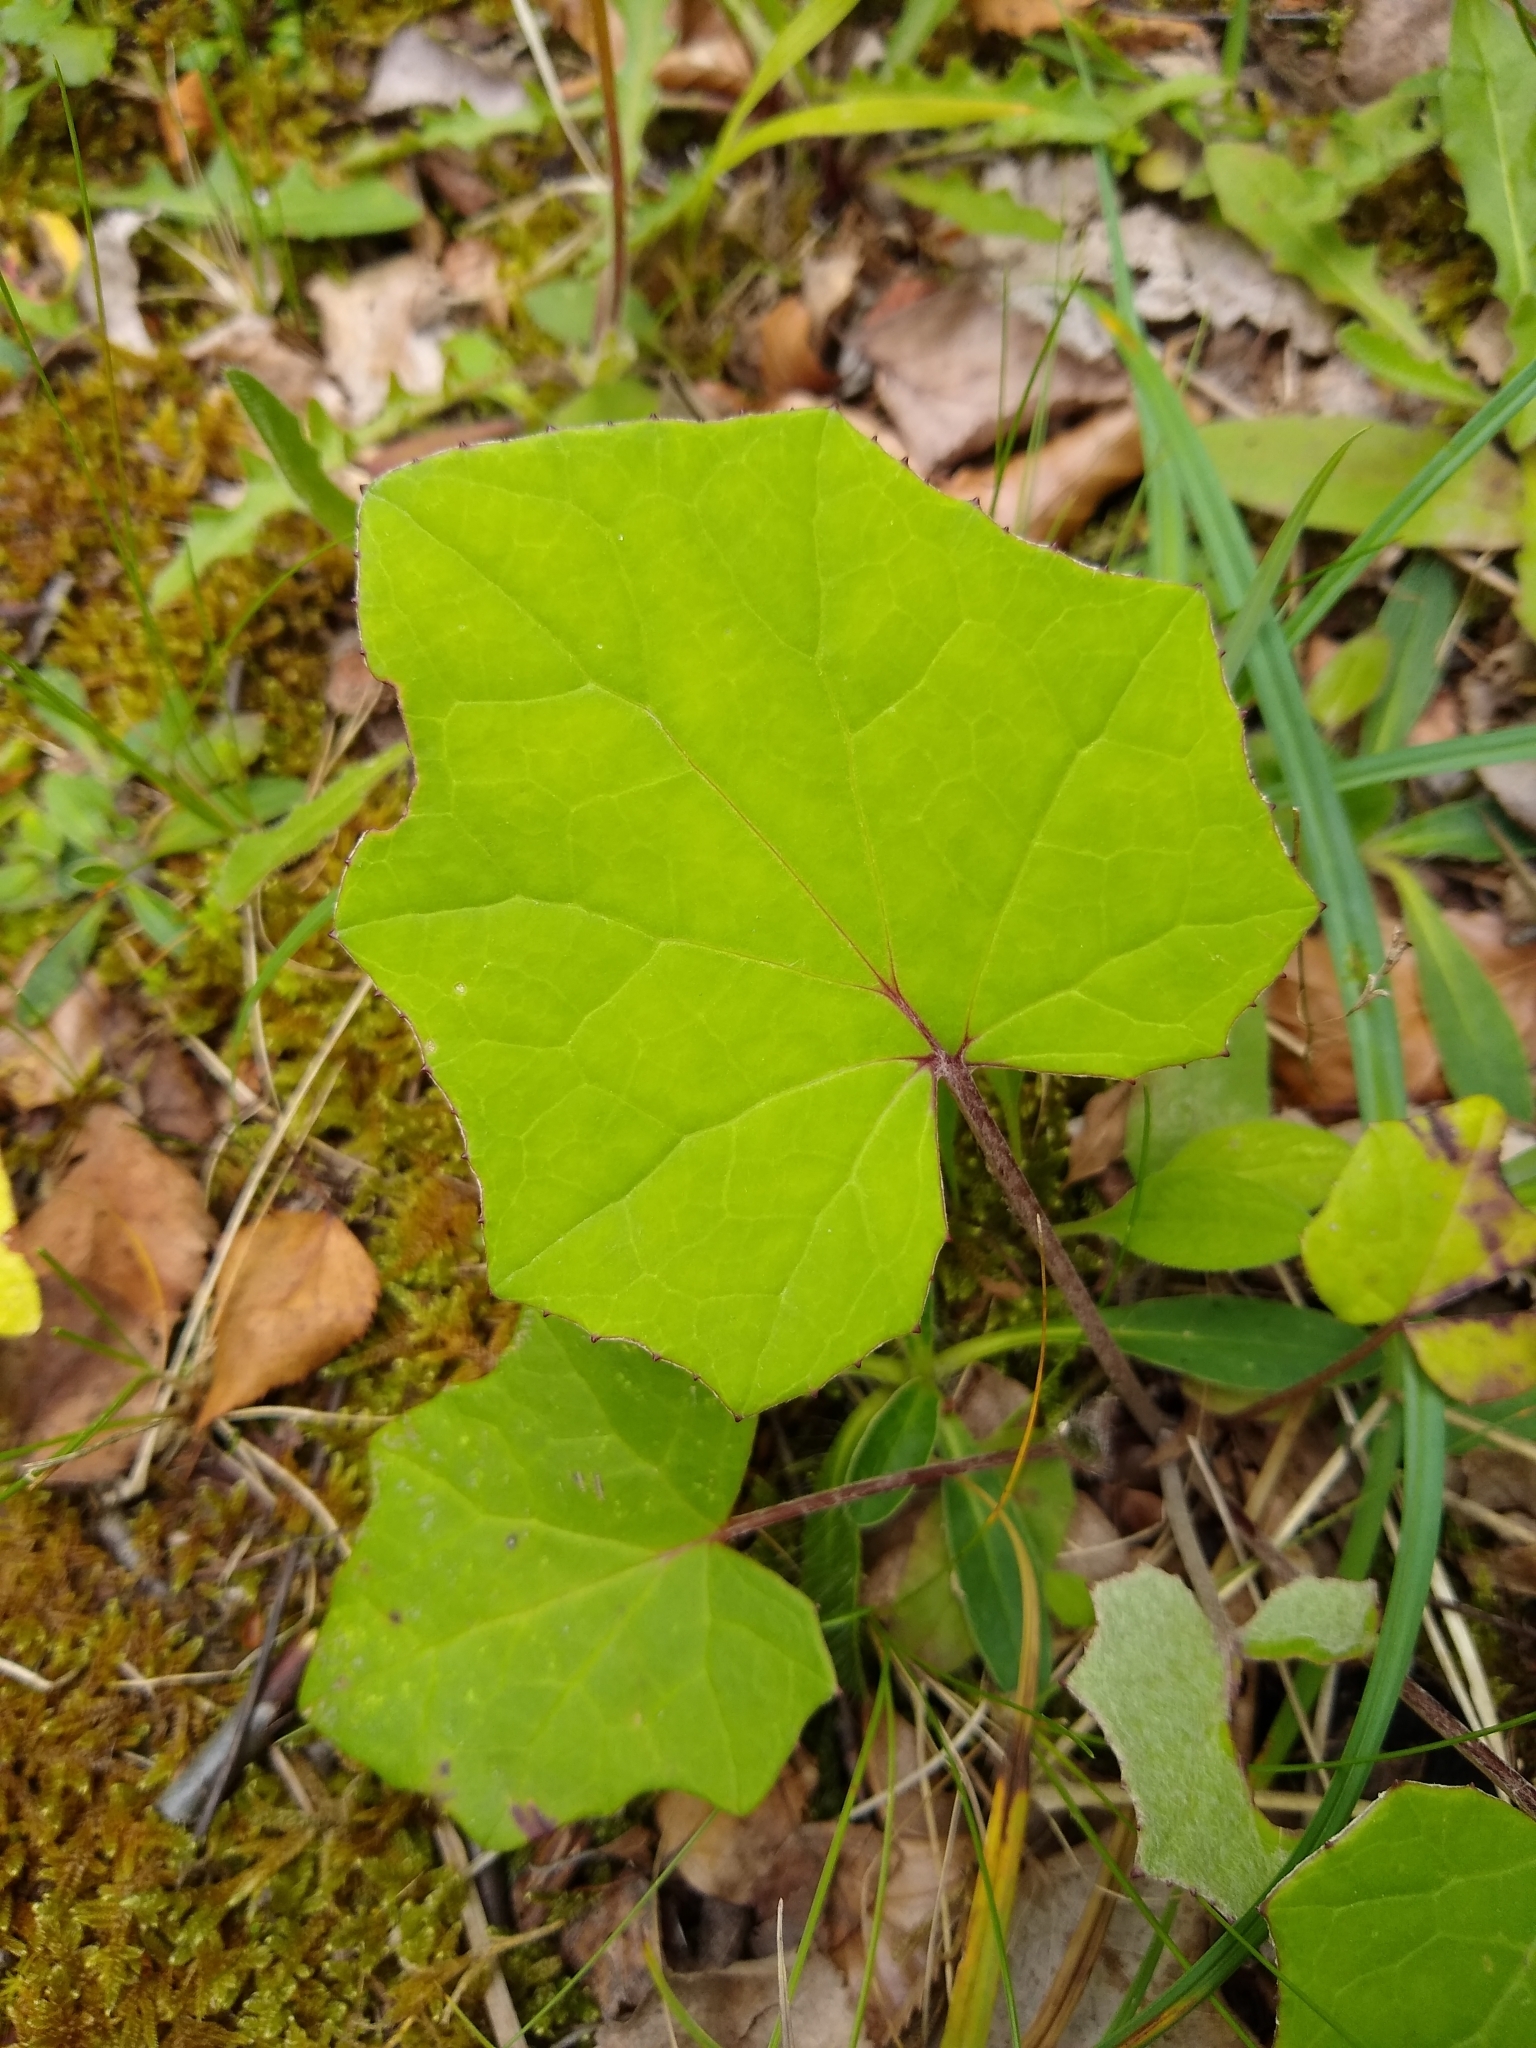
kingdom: Plantae
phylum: Tracheophyta
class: Magnoliopsida
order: Asterales
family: Asteraceae
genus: Tussilago
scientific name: Tussilago farfara
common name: Coltsfoot
